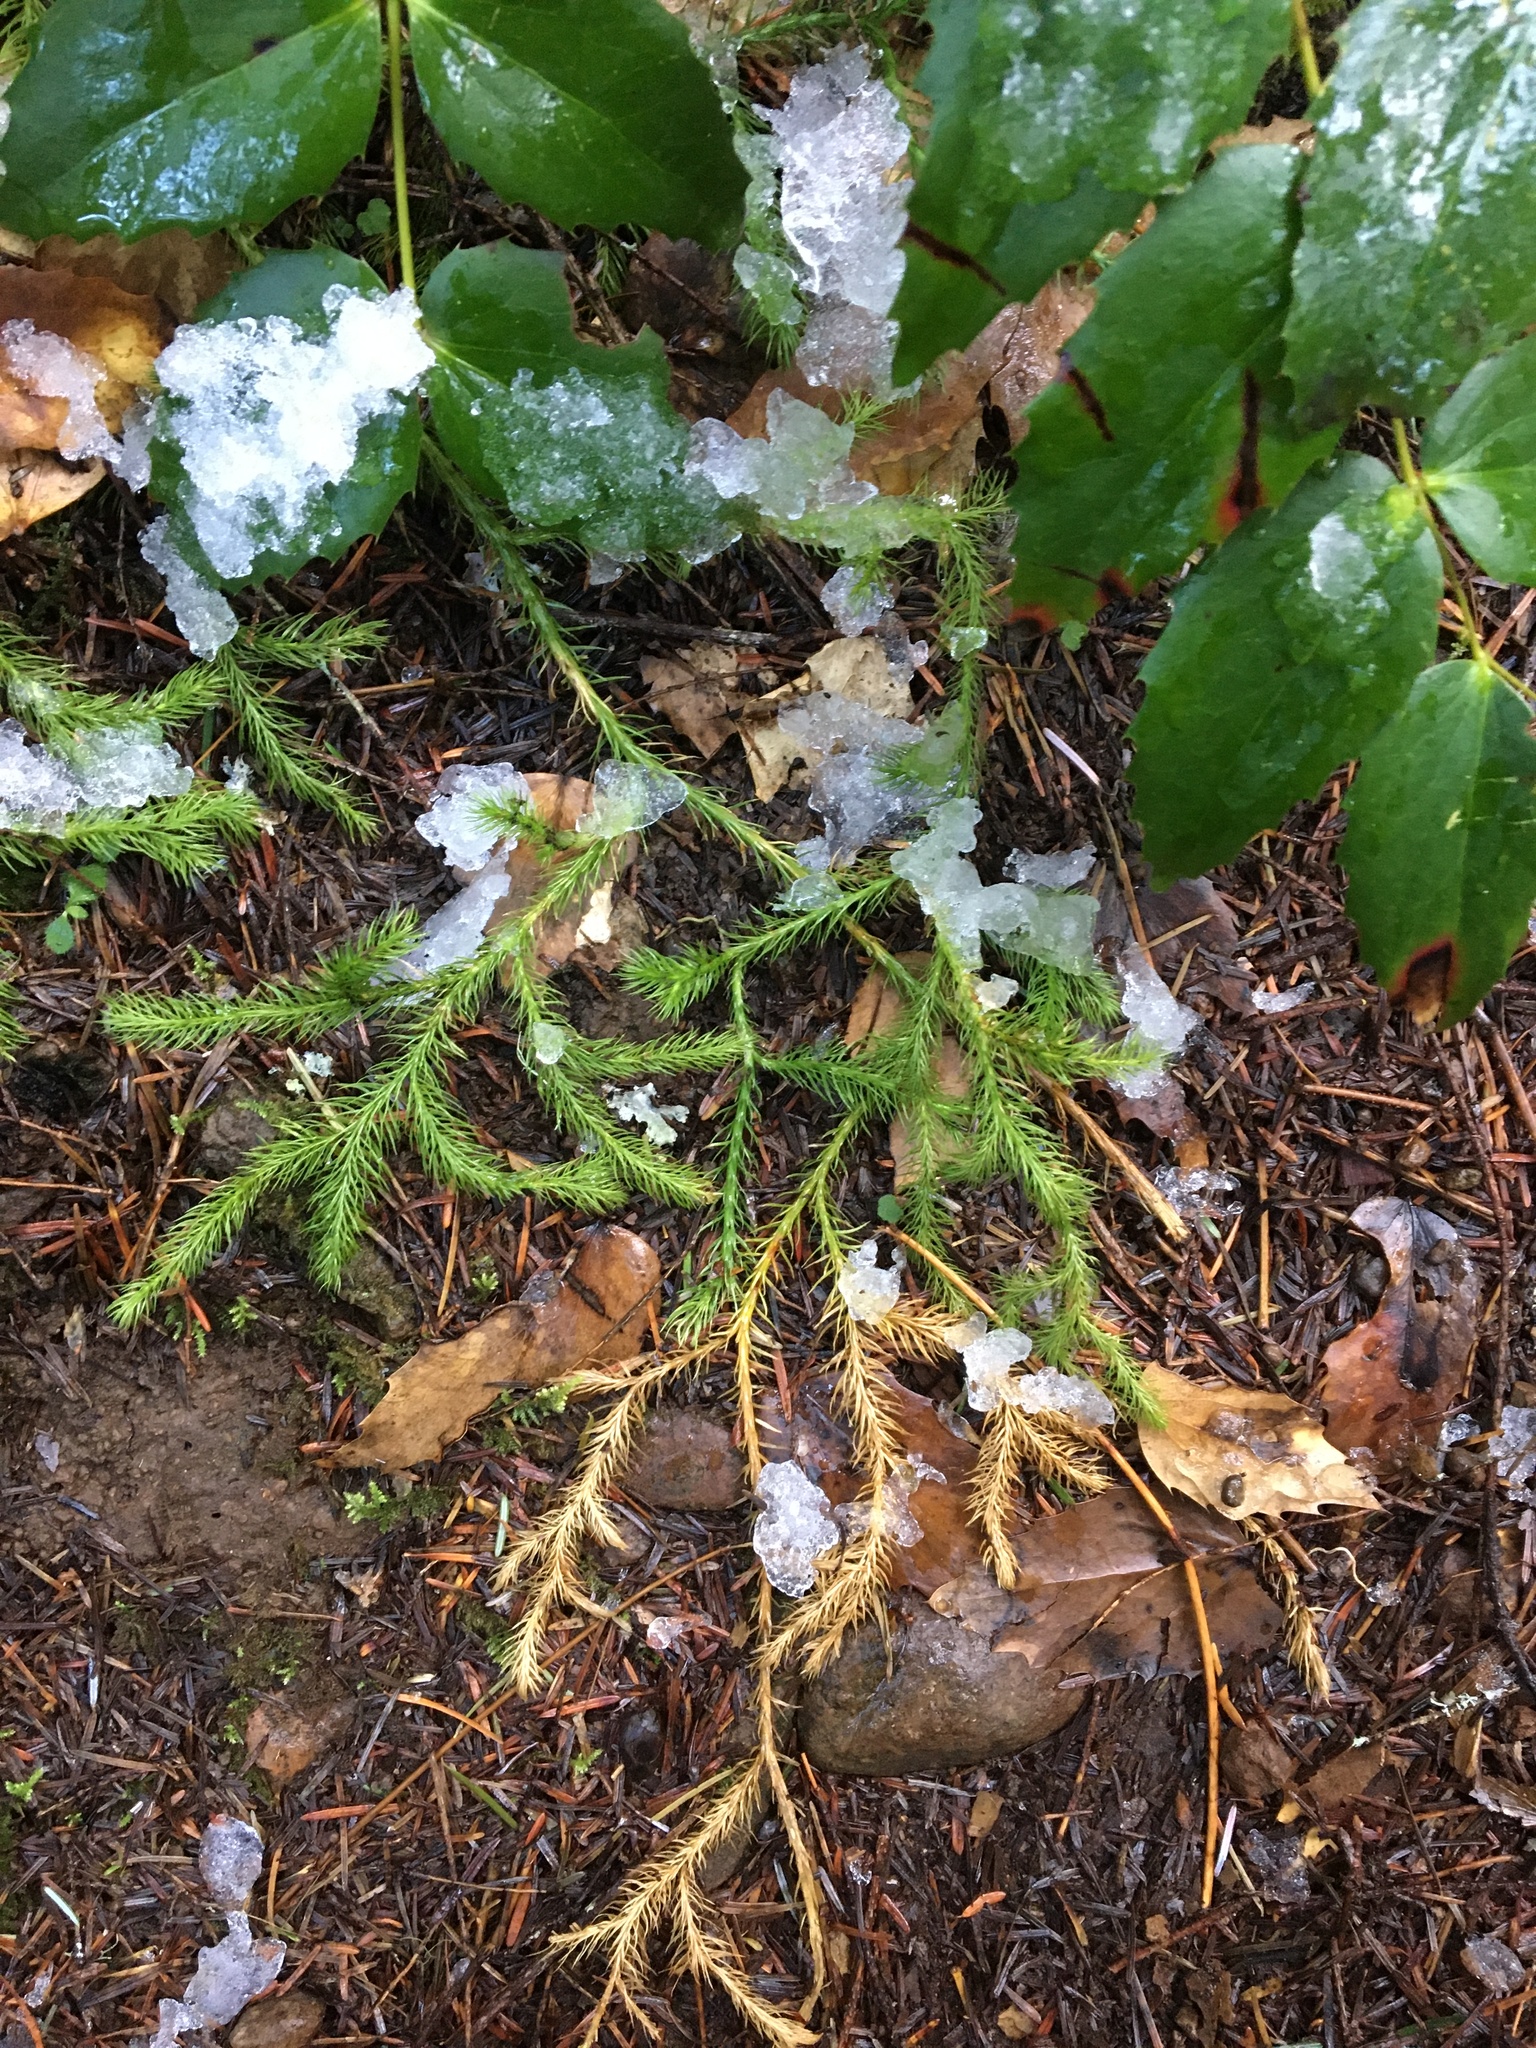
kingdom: Plantae
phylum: Tracheophyta
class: Lycopodiopsida
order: Lycopodiales
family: Lycopodiaceae
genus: Lycopodium
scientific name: Lycopodium clavatum
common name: Stag's-horn clubmoss
